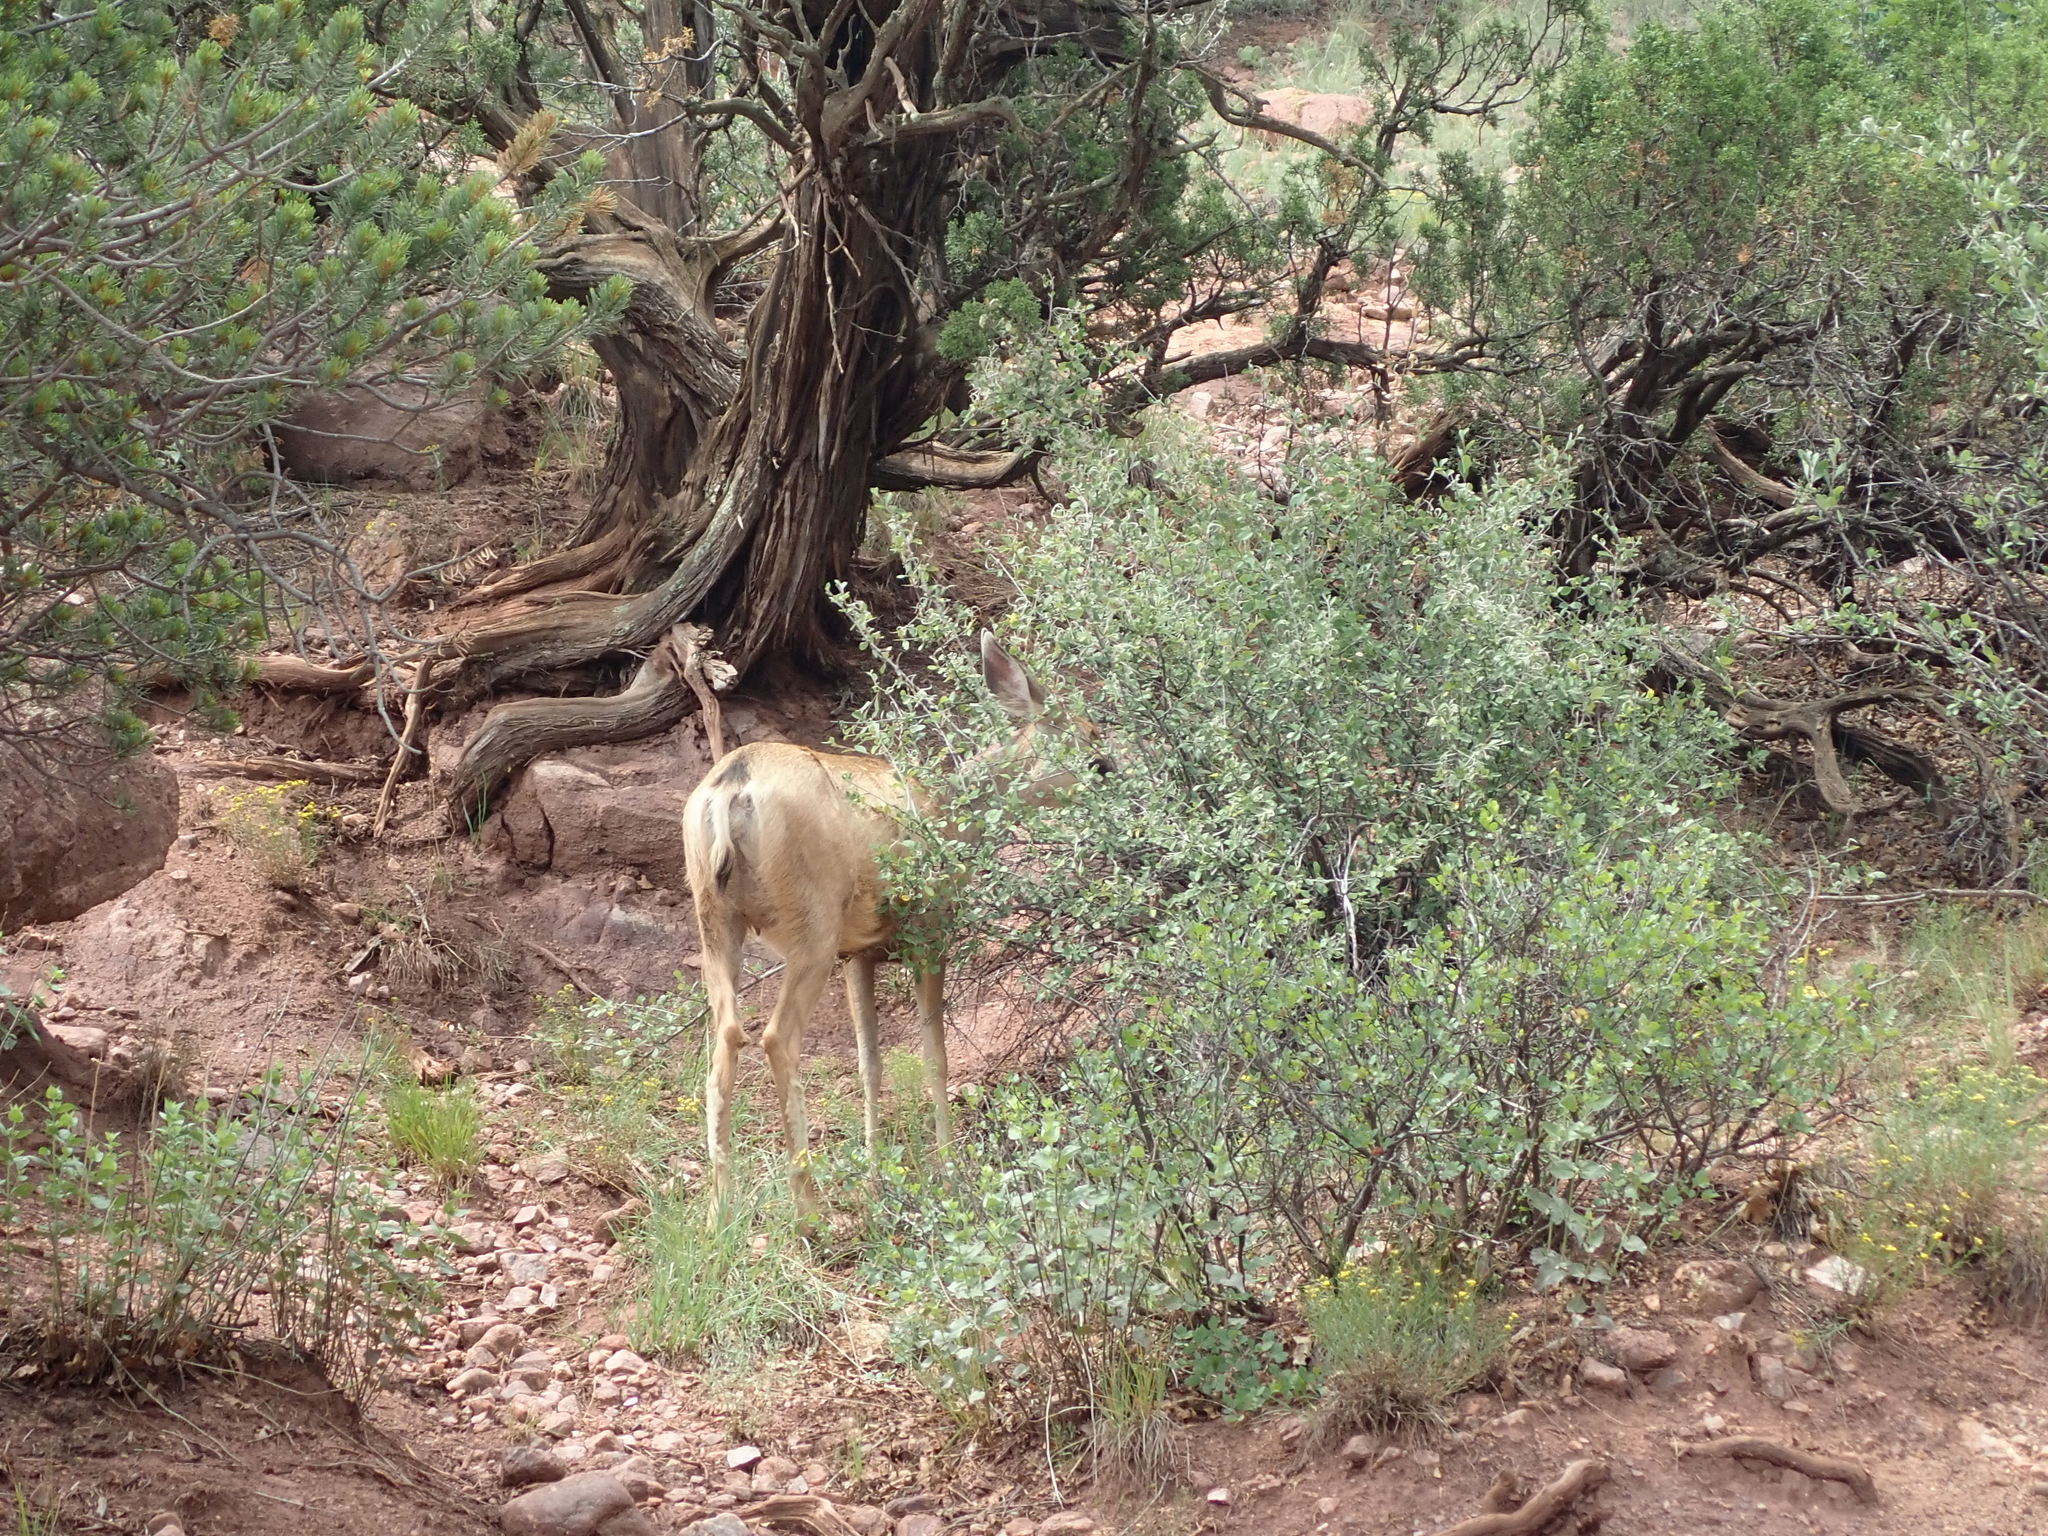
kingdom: Animalia
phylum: Chordata
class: Mammalia
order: Artiodactyla
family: Cervidae
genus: Odocoileus
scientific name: Odocoileus hemionus
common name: Mule deer
